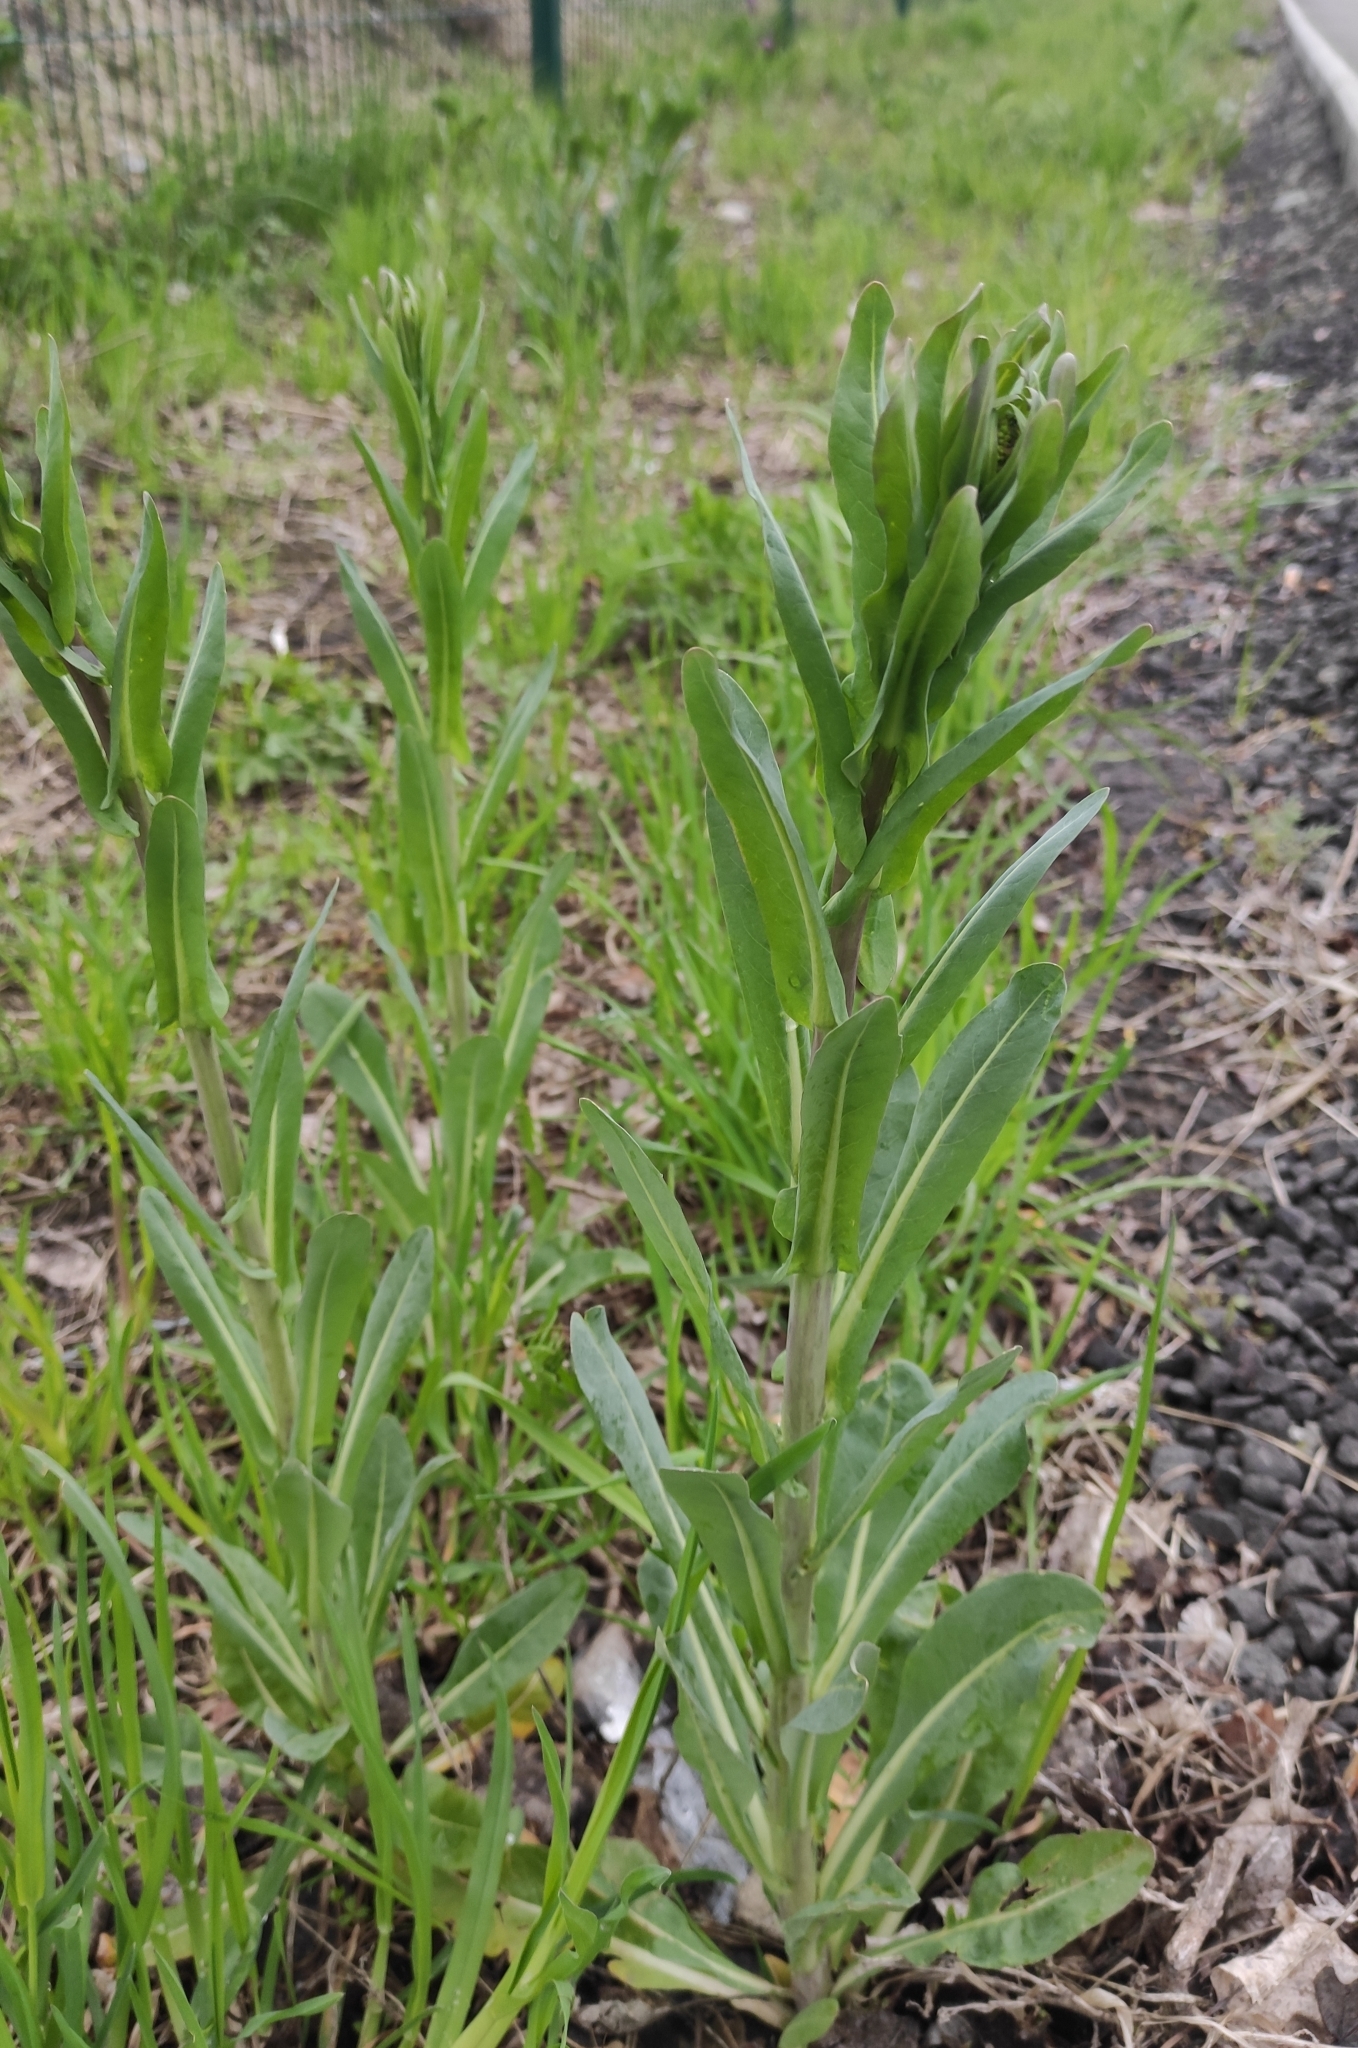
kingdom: Plantae
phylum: Tracheophyta
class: Magnoliopsida
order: Brassicales
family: Brassicaceae
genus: Isatis
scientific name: Isatis tinctoria
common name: Woad
